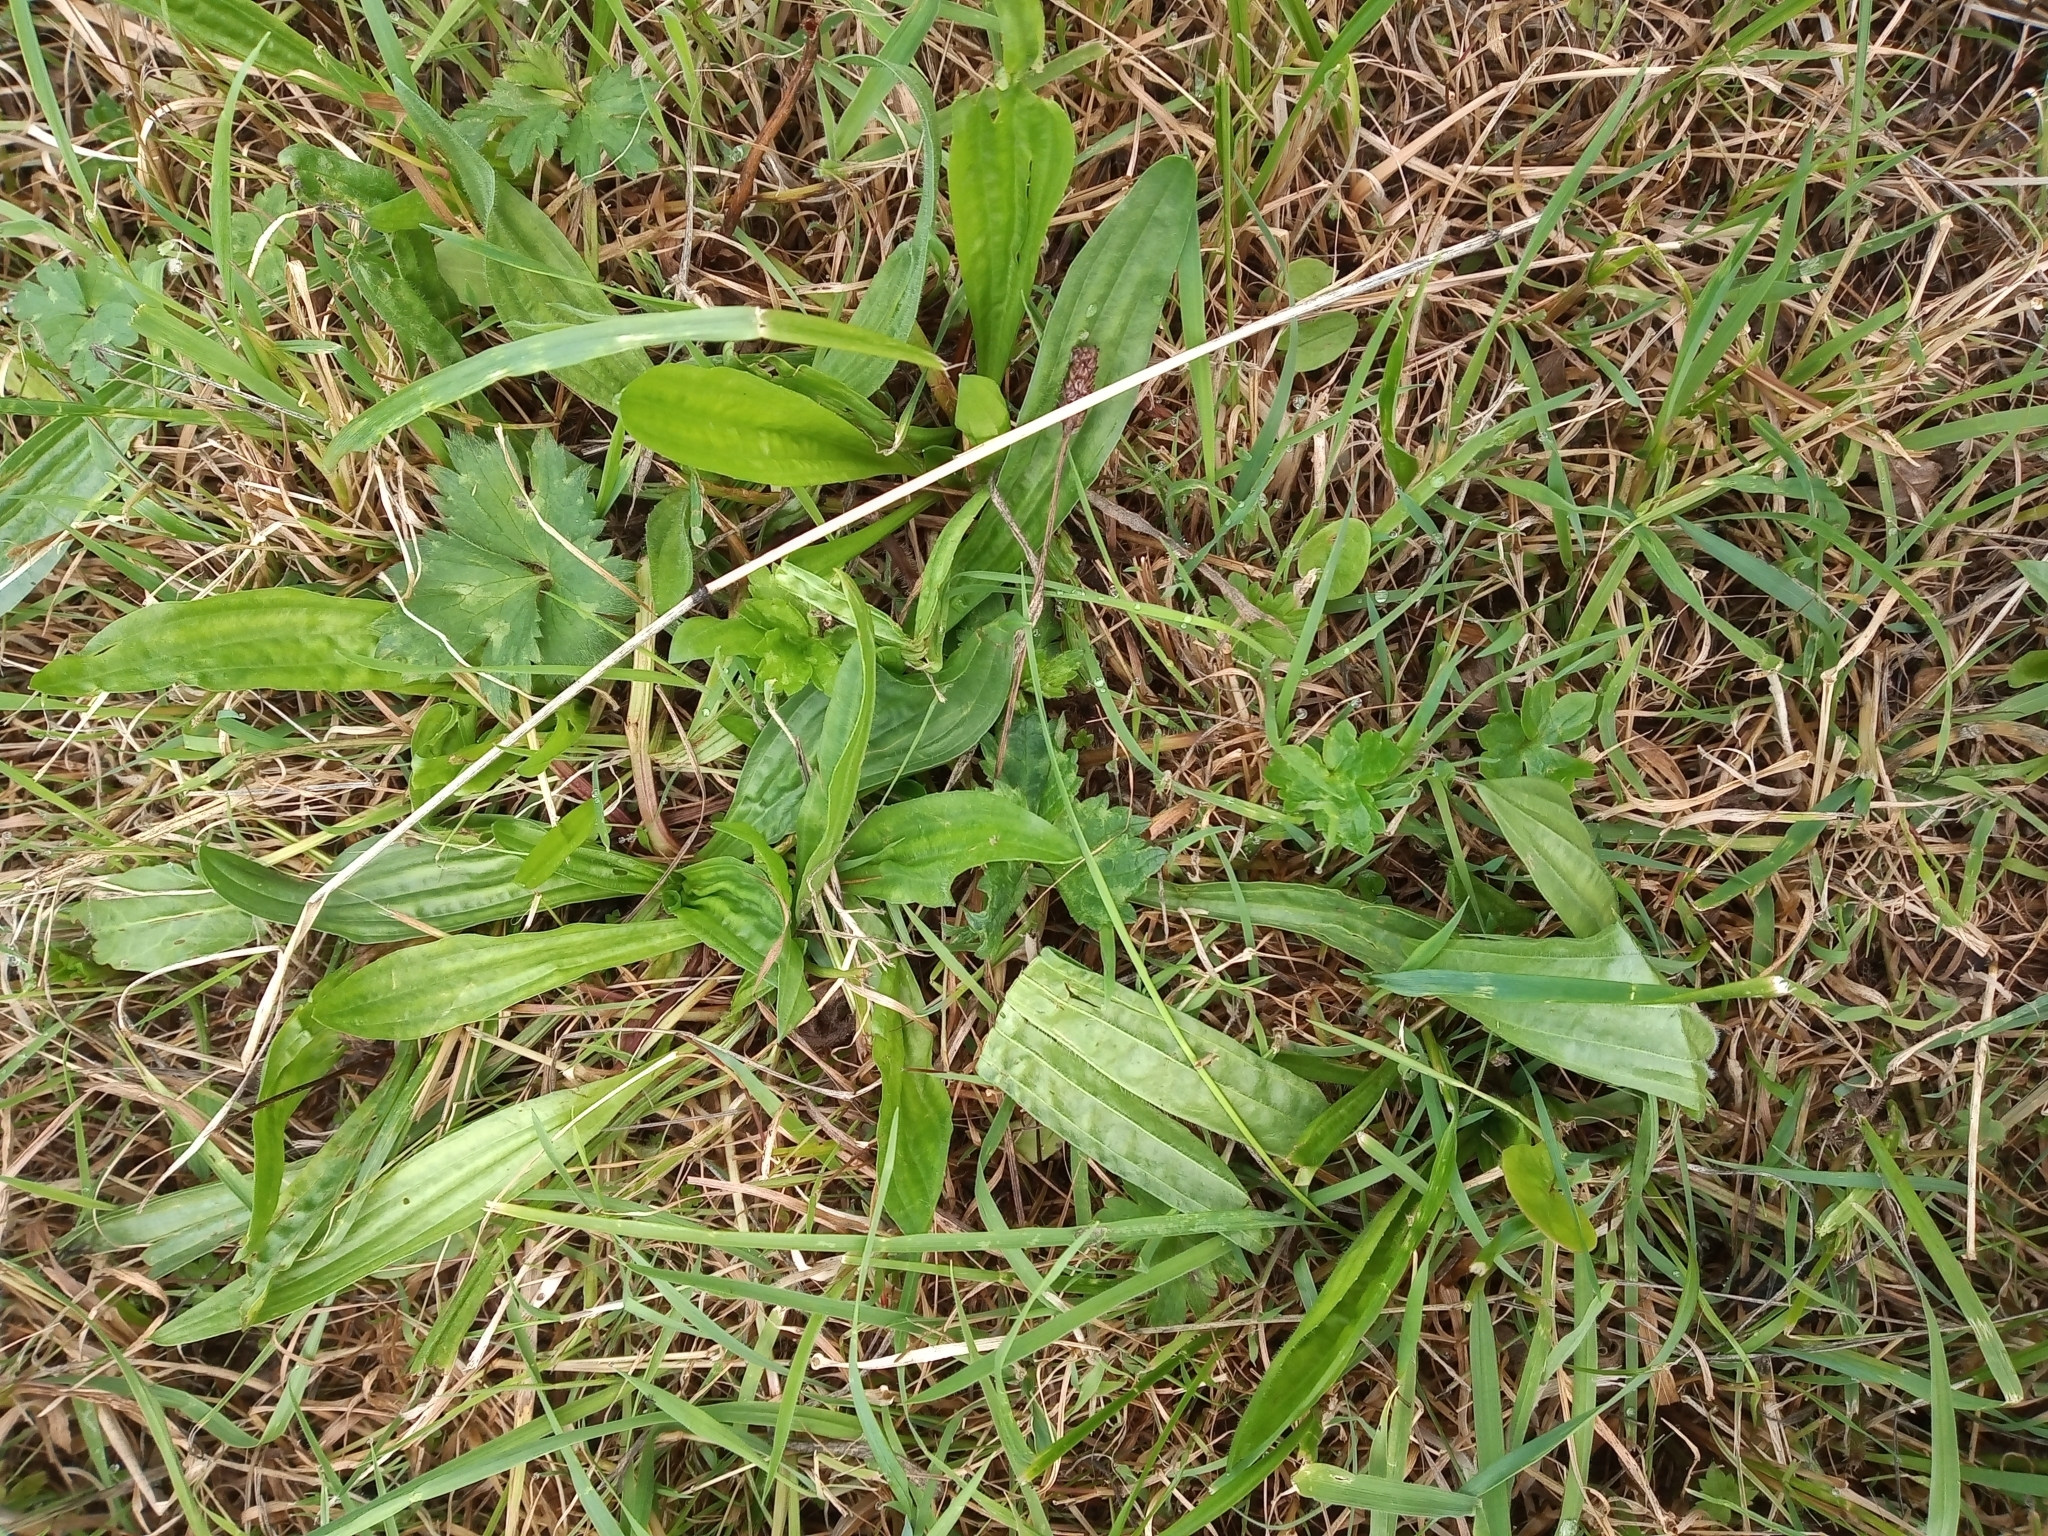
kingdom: Plantae
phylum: Tracheophyta
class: Magnoliopsida
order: Lamiales
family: Plantaginaceae
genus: Plantago
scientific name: Plantago lanceolata
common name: Ribwort plantain
